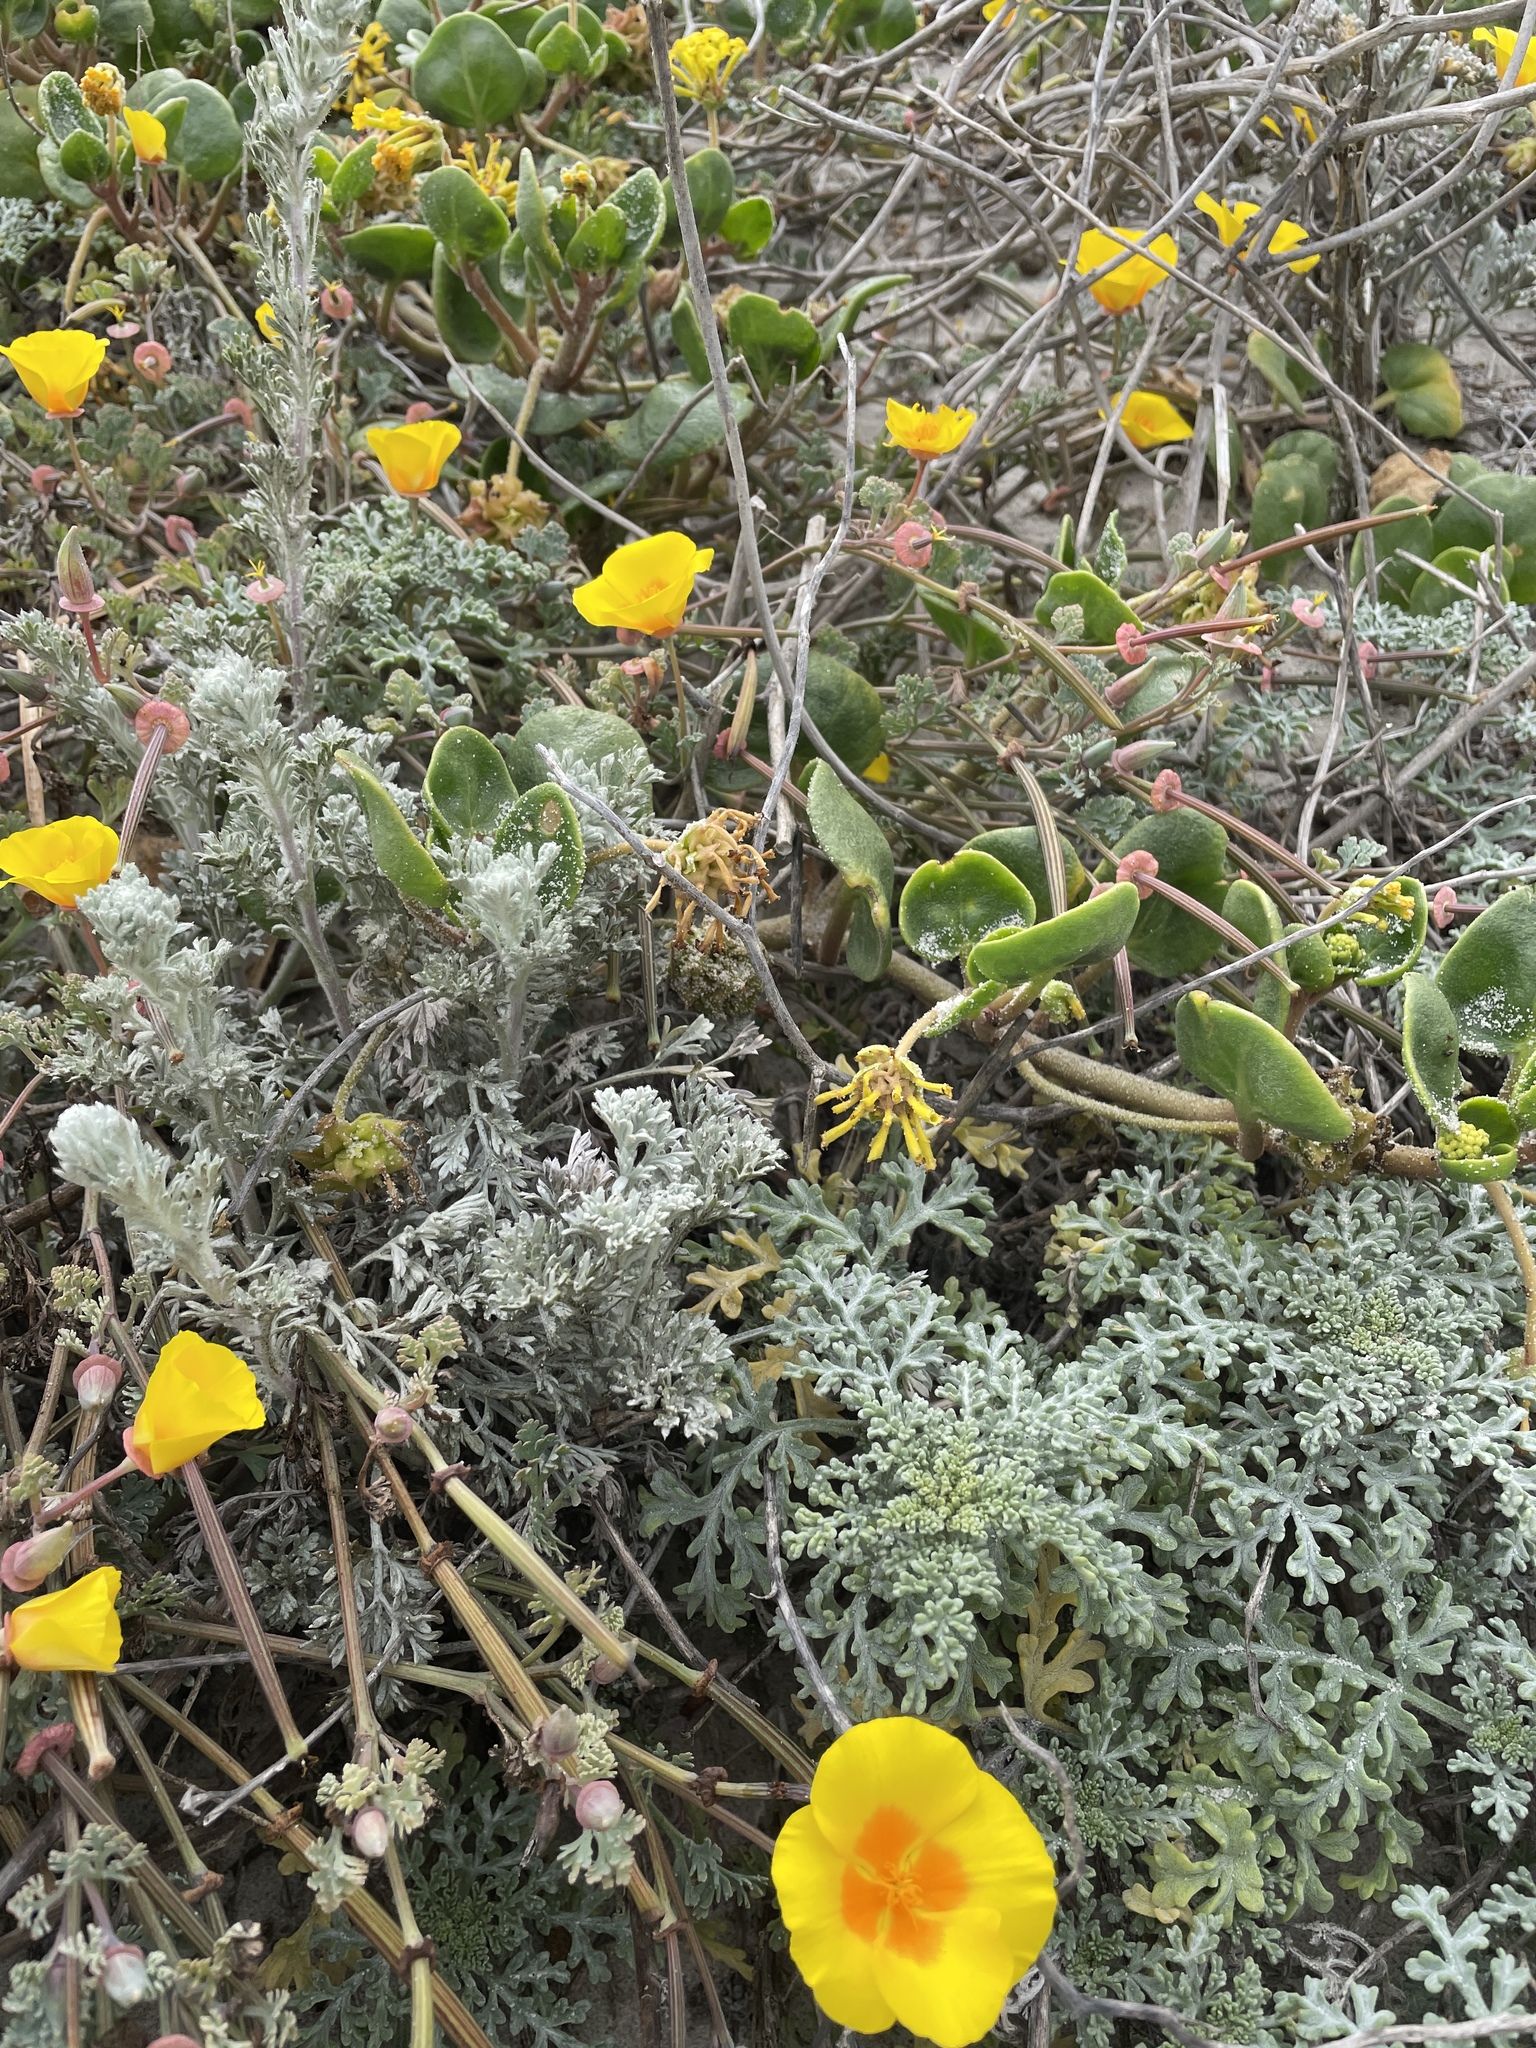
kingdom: Plantae
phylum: Tracheophyta
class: Magnoliopsida
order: Ranunculales
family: Papaveraceae
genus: Eschscholzia
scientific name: Eschscholzia californica
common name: California poppy
